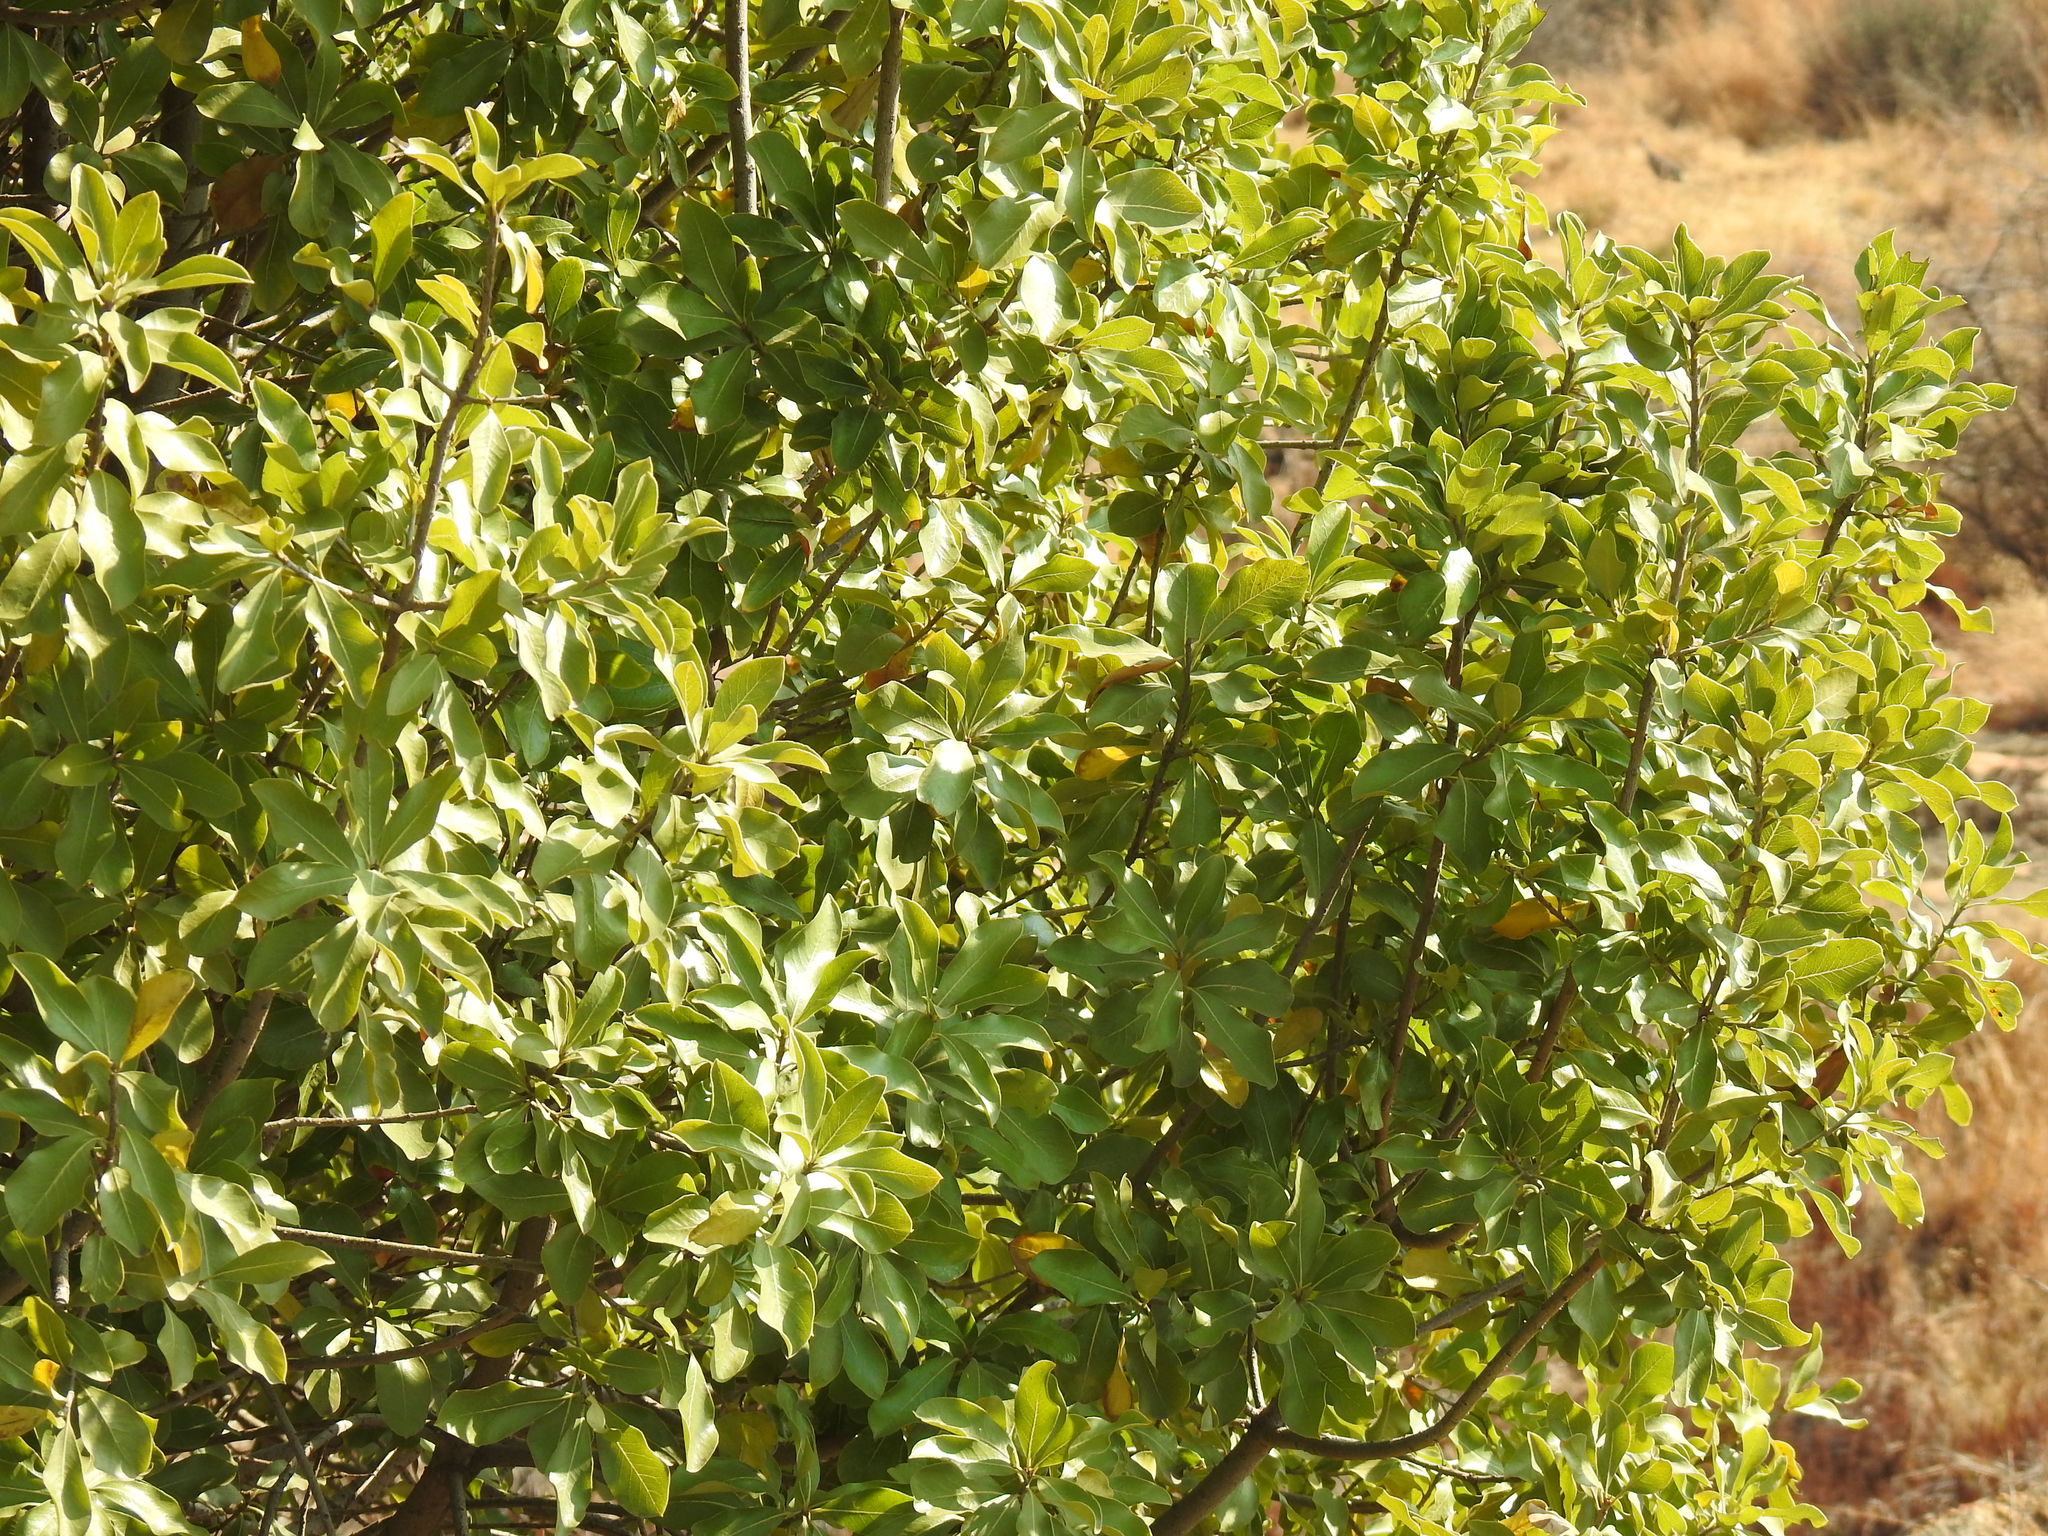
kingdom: Plantae
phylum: Tracheophyta
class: Magnoliopsida
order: Apiales
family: Pittosporaceae
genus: Pittosporum
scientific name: Pittosporum viridiflorum
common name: Cape cheesewood
